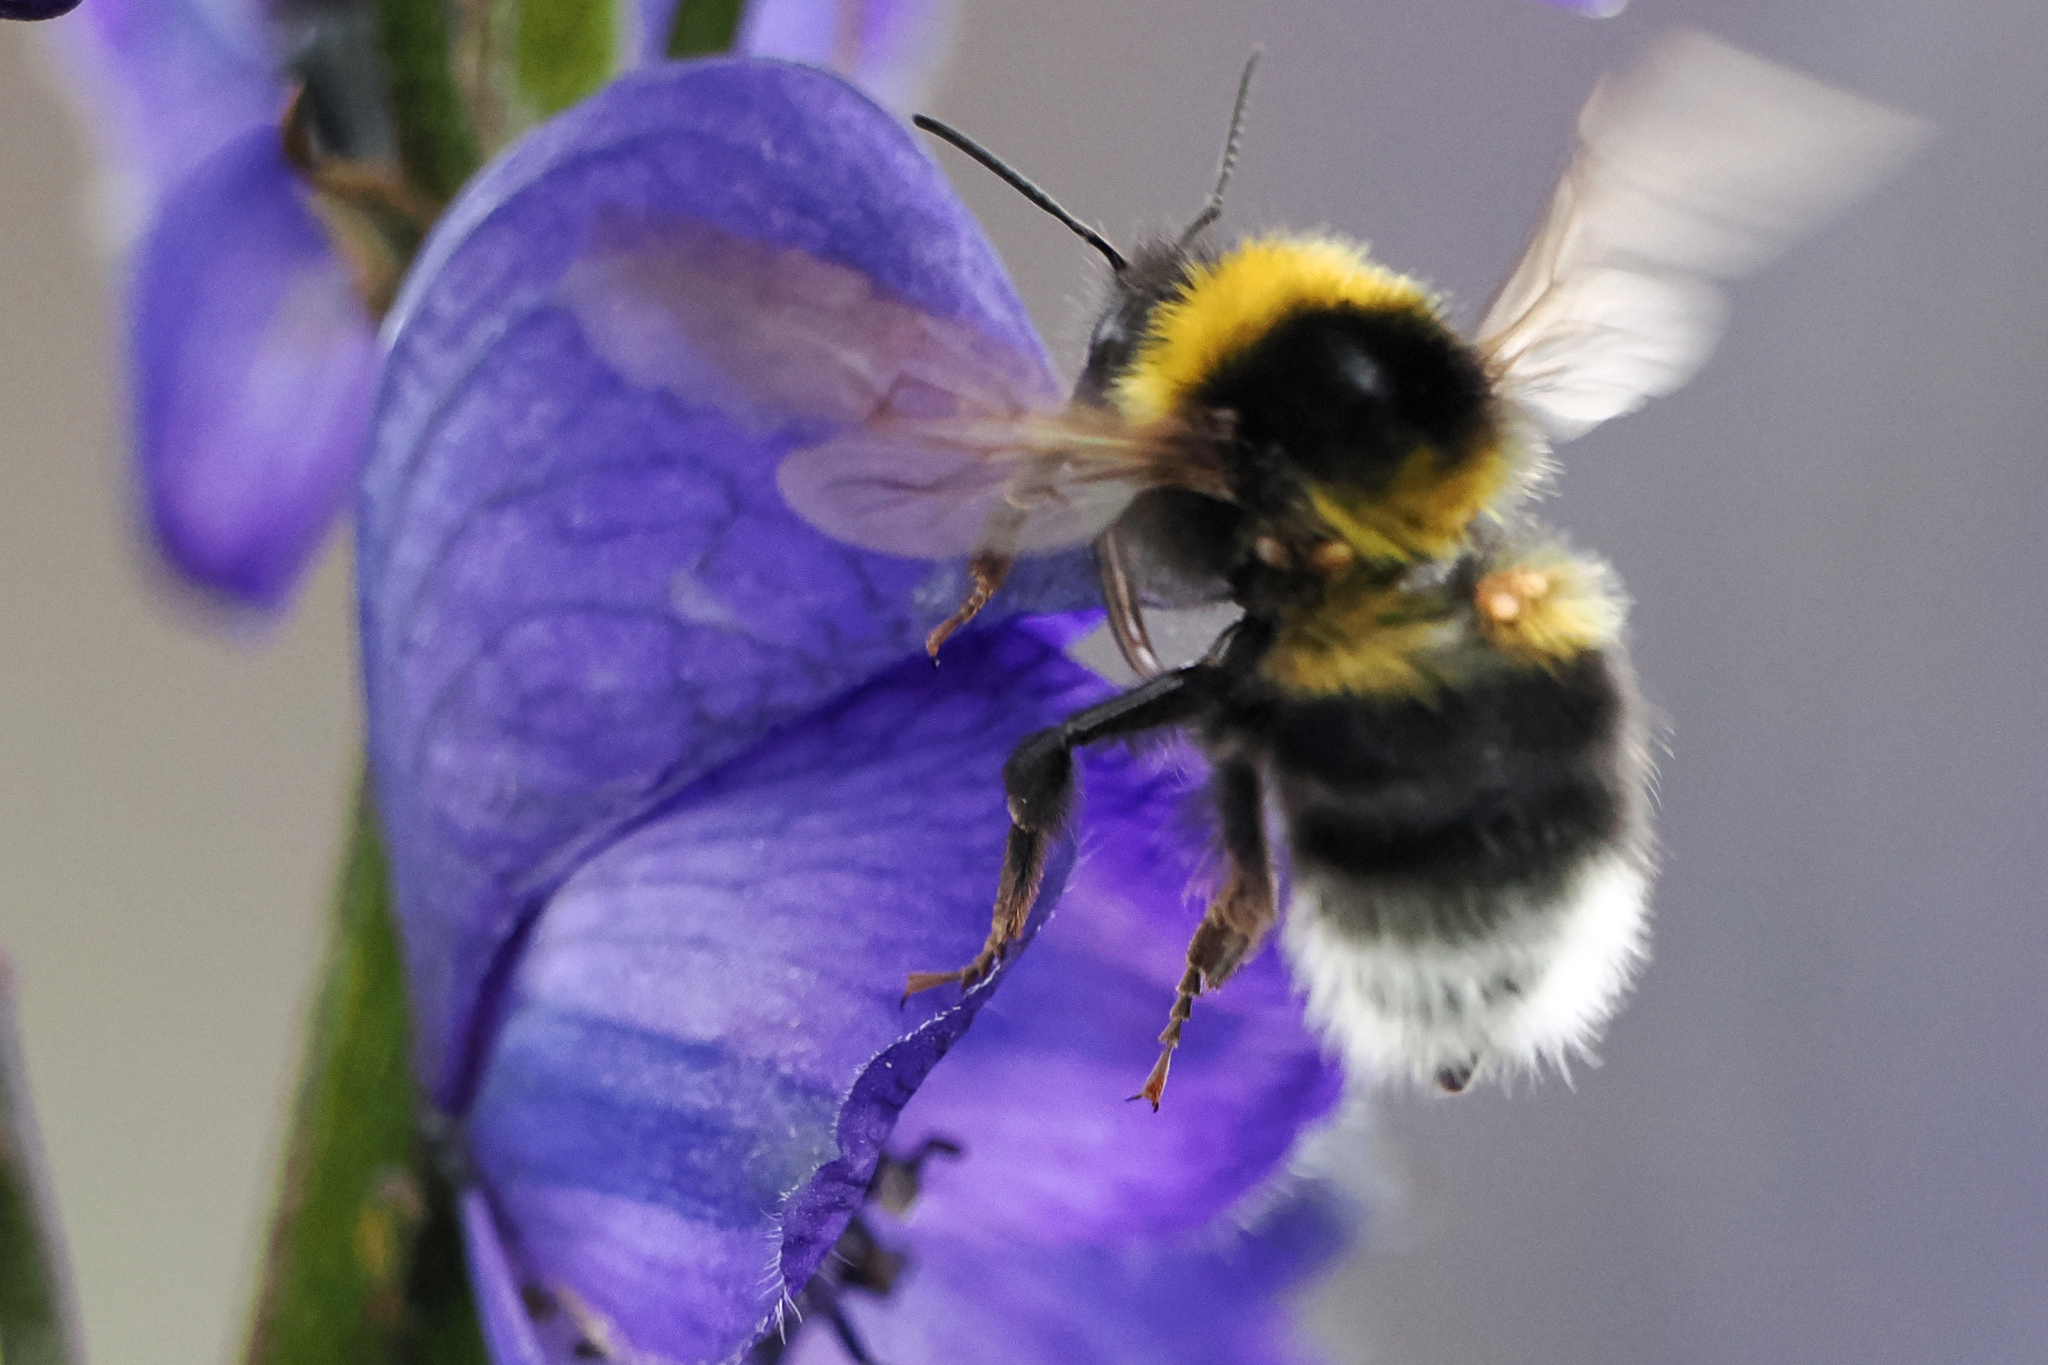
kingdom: Animalia
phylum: Arthropoda
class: Insecta
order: Hymenoptera
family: Apidae
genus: Bombus
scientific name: Bombus hortorum
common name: Garden bumblebee
